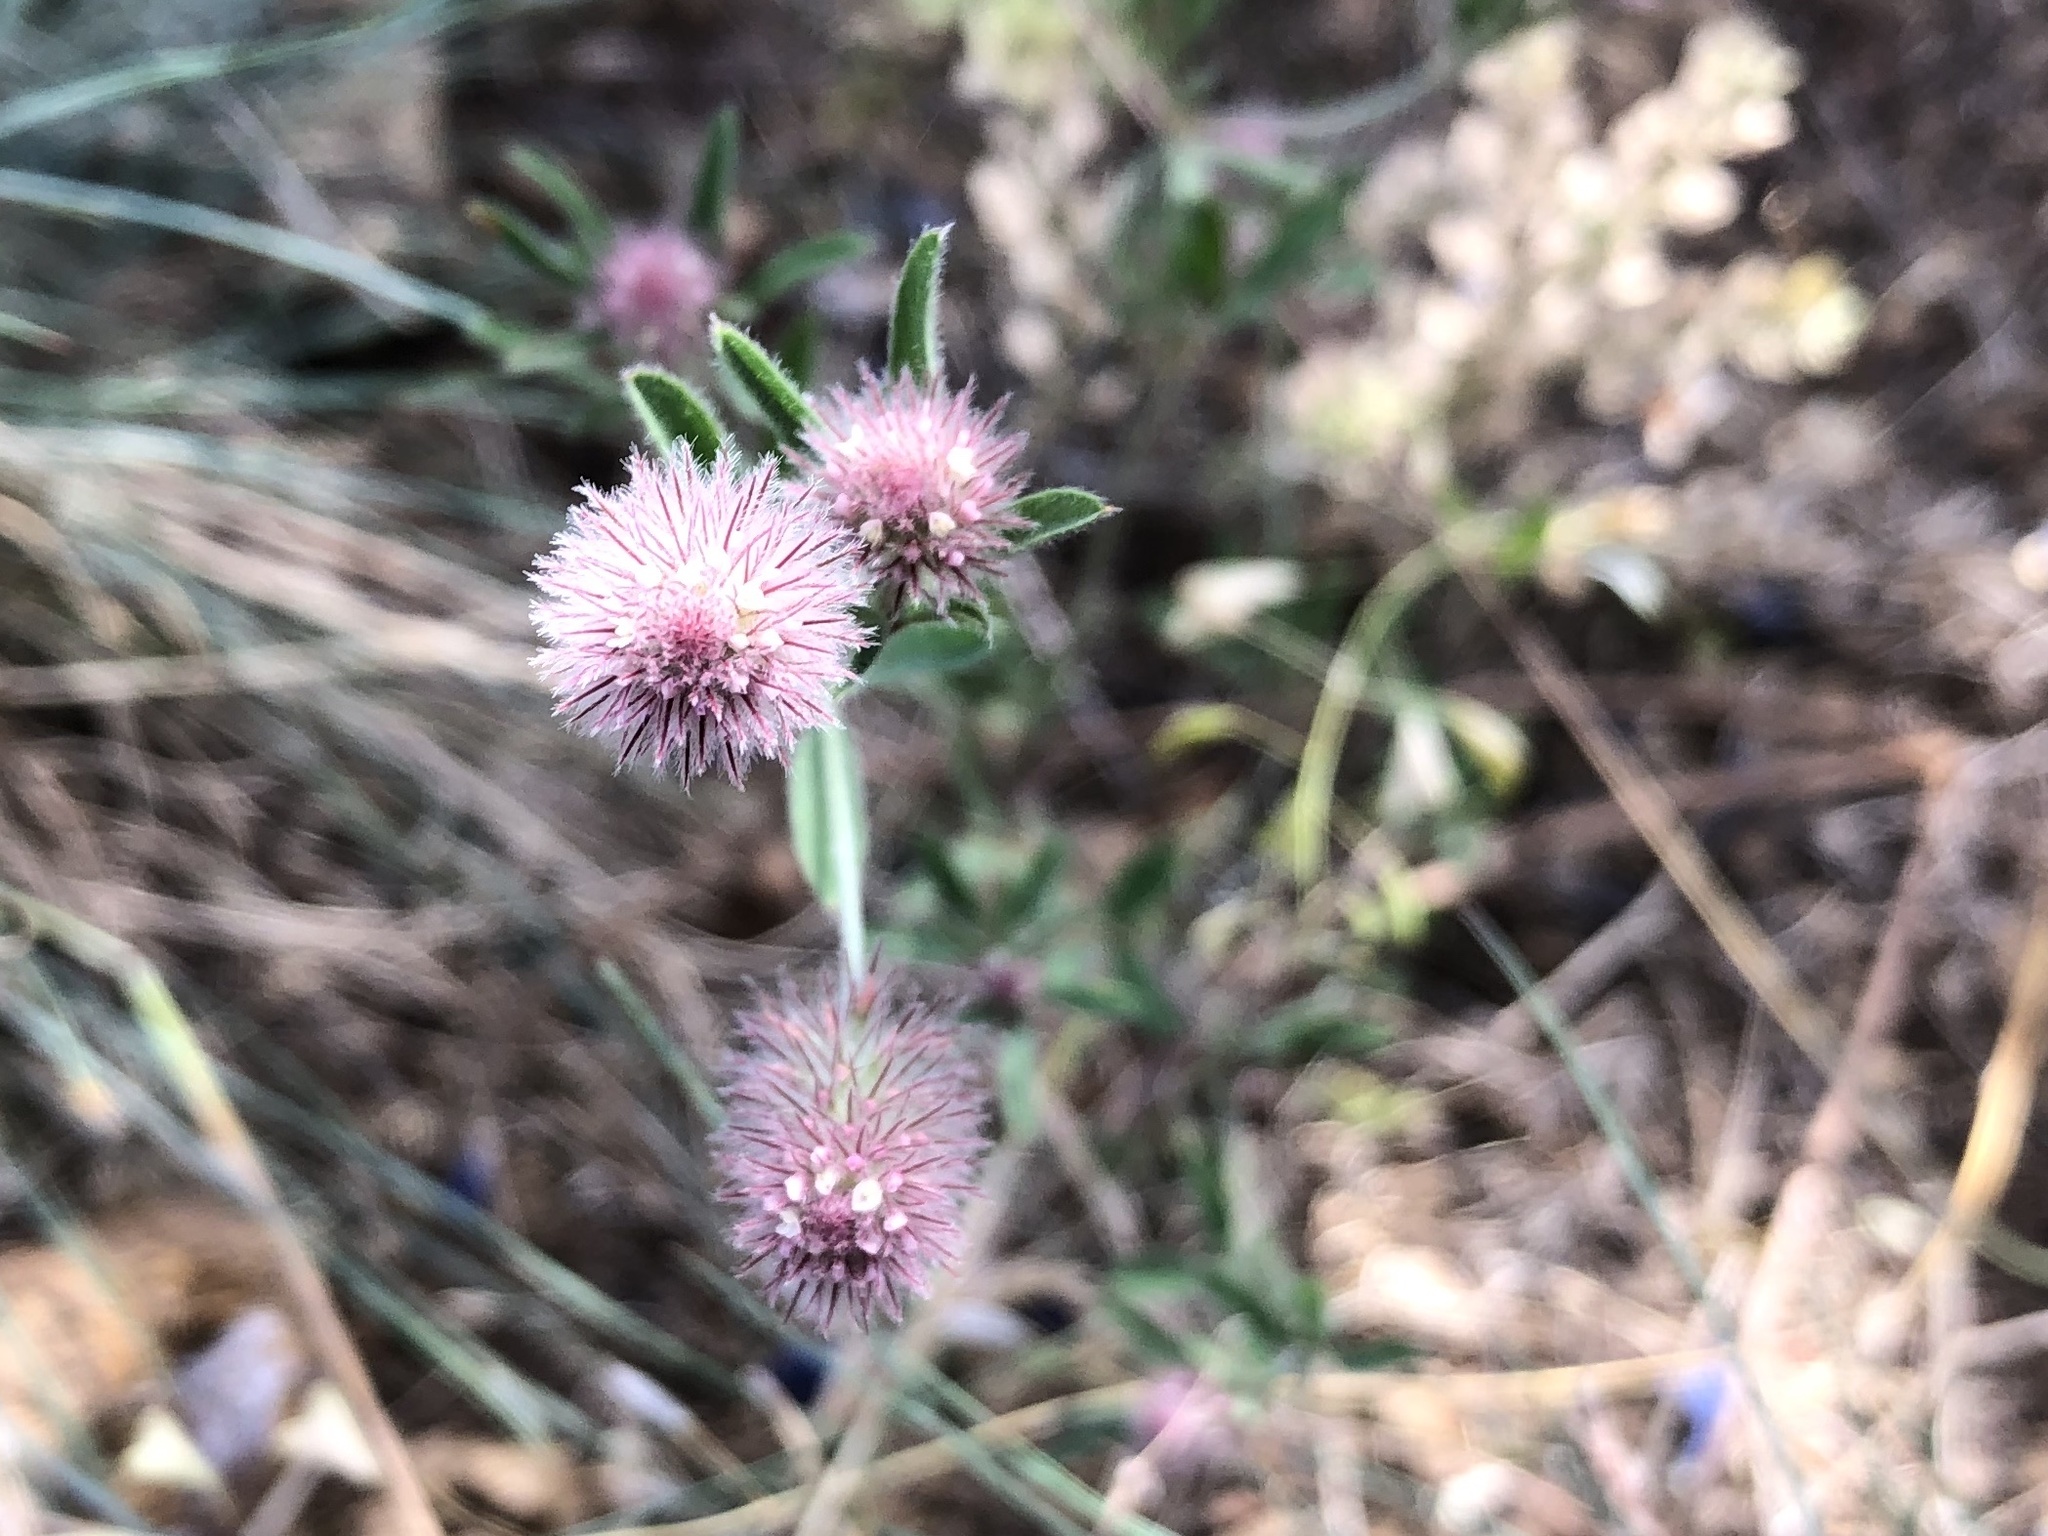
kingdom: Plantae
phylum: Tracheophyta
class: Magnoliopsida
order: Fabales
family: Fabaceae
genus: Trifolium
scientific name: Trifolium arvense
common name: Hare's-foot clover
